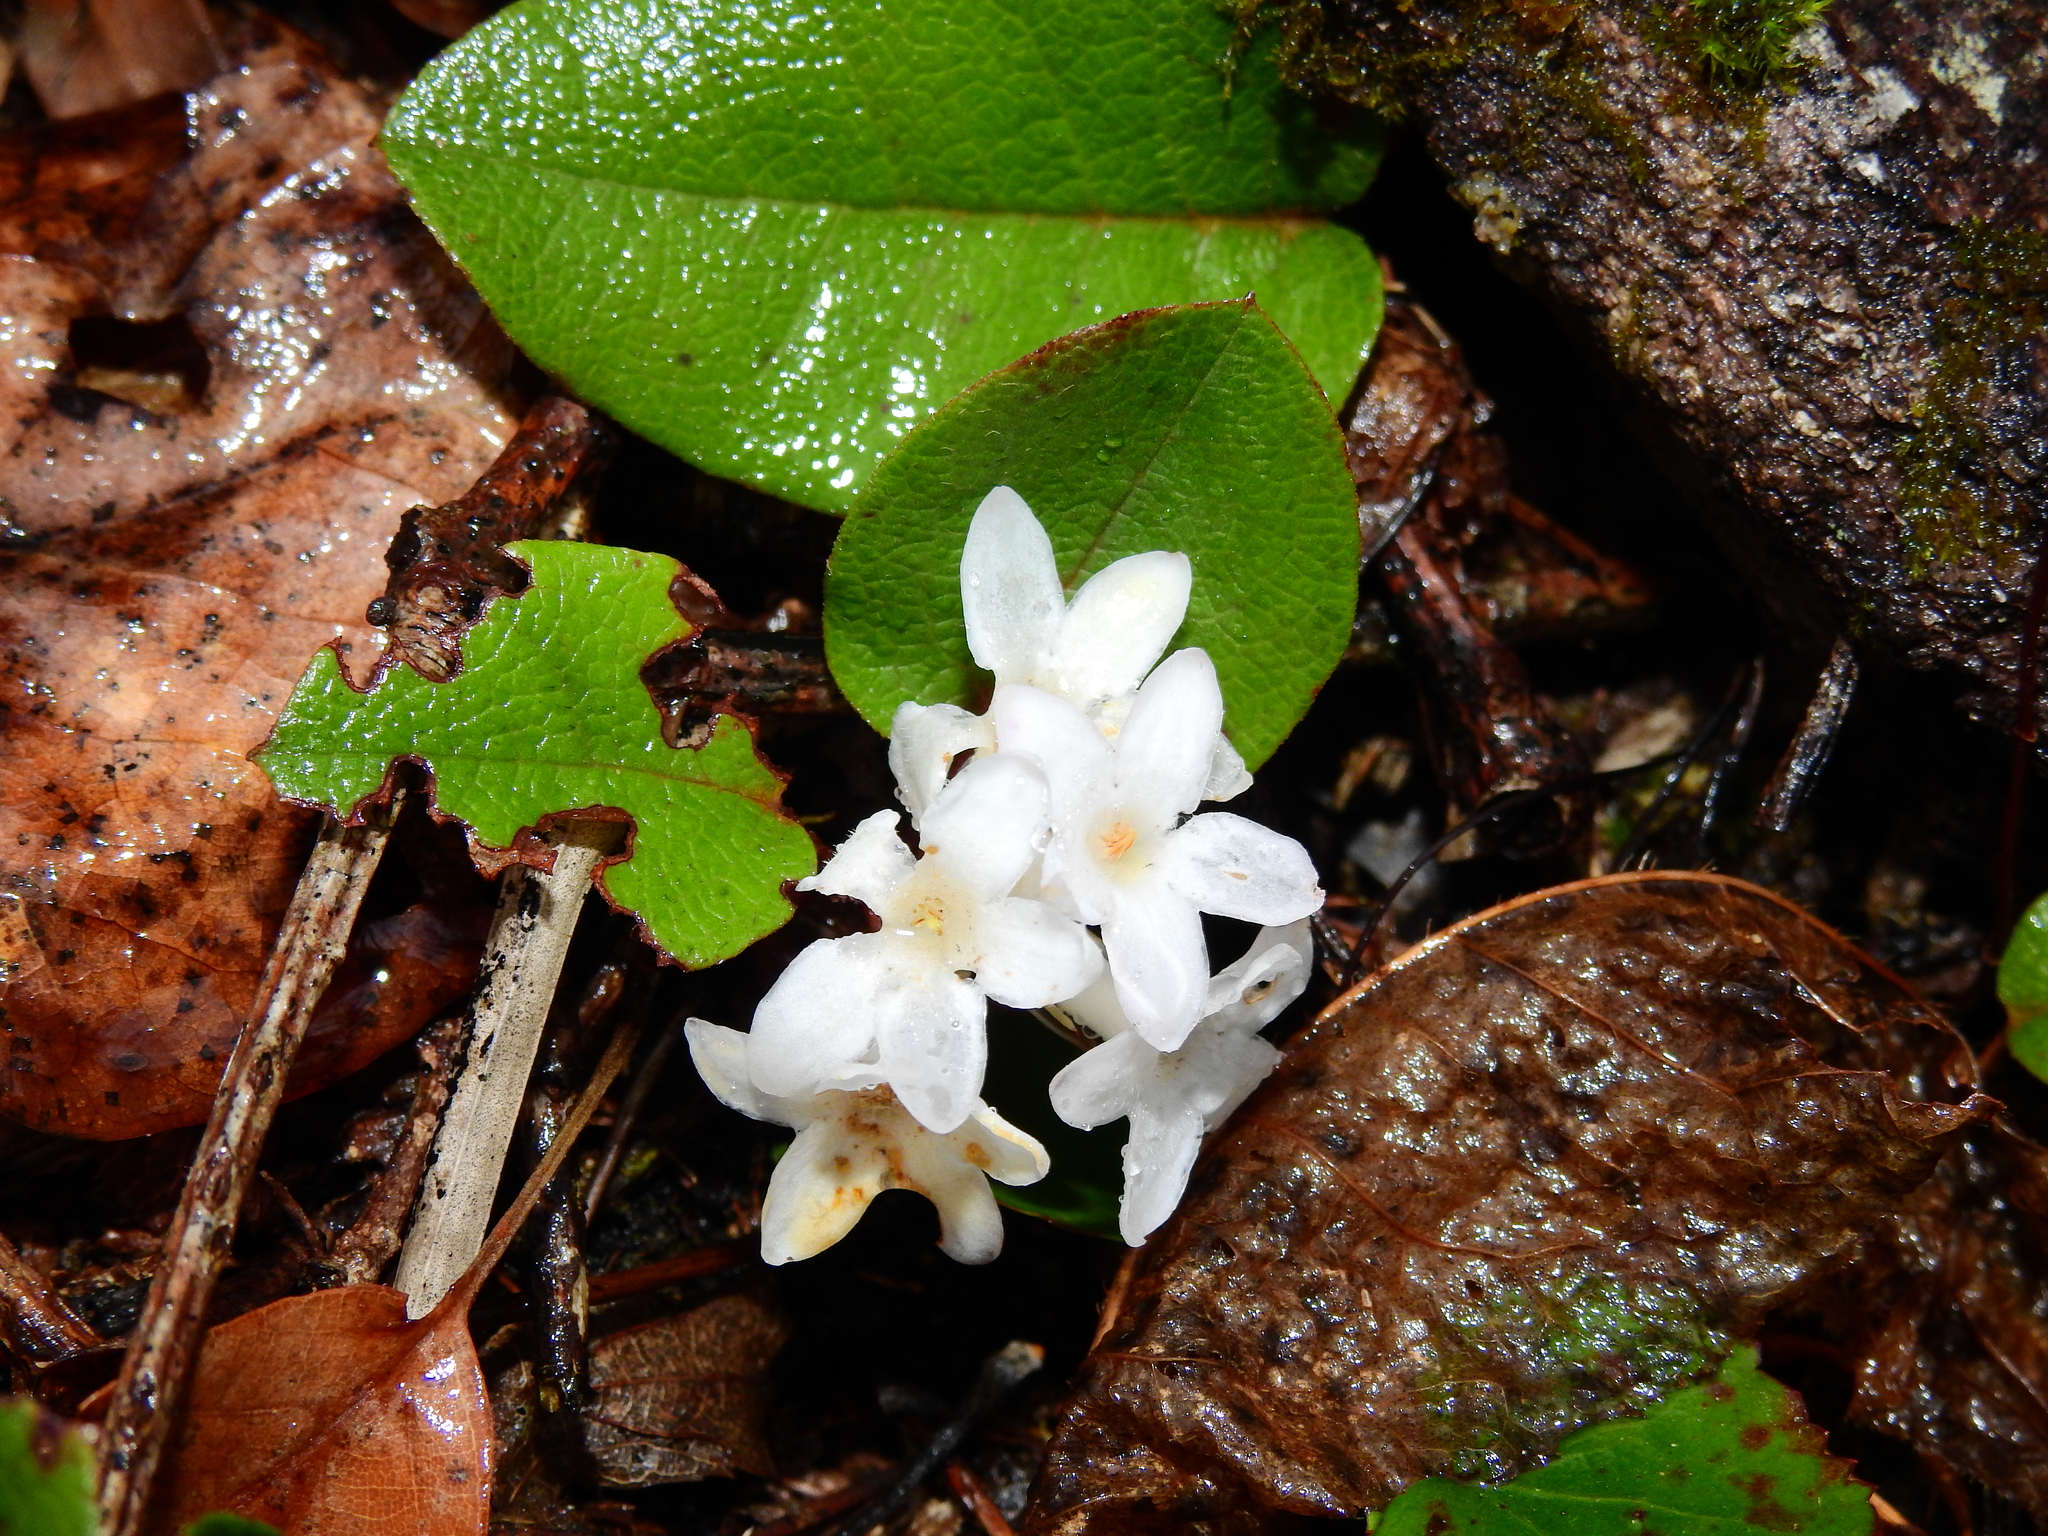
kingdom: Plantae
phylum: Tracheophyta
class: Magnoliopsida
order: Ericales
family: Ericaceae
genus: Epigaea
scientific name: Epigaea repens
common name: Gravelroot
